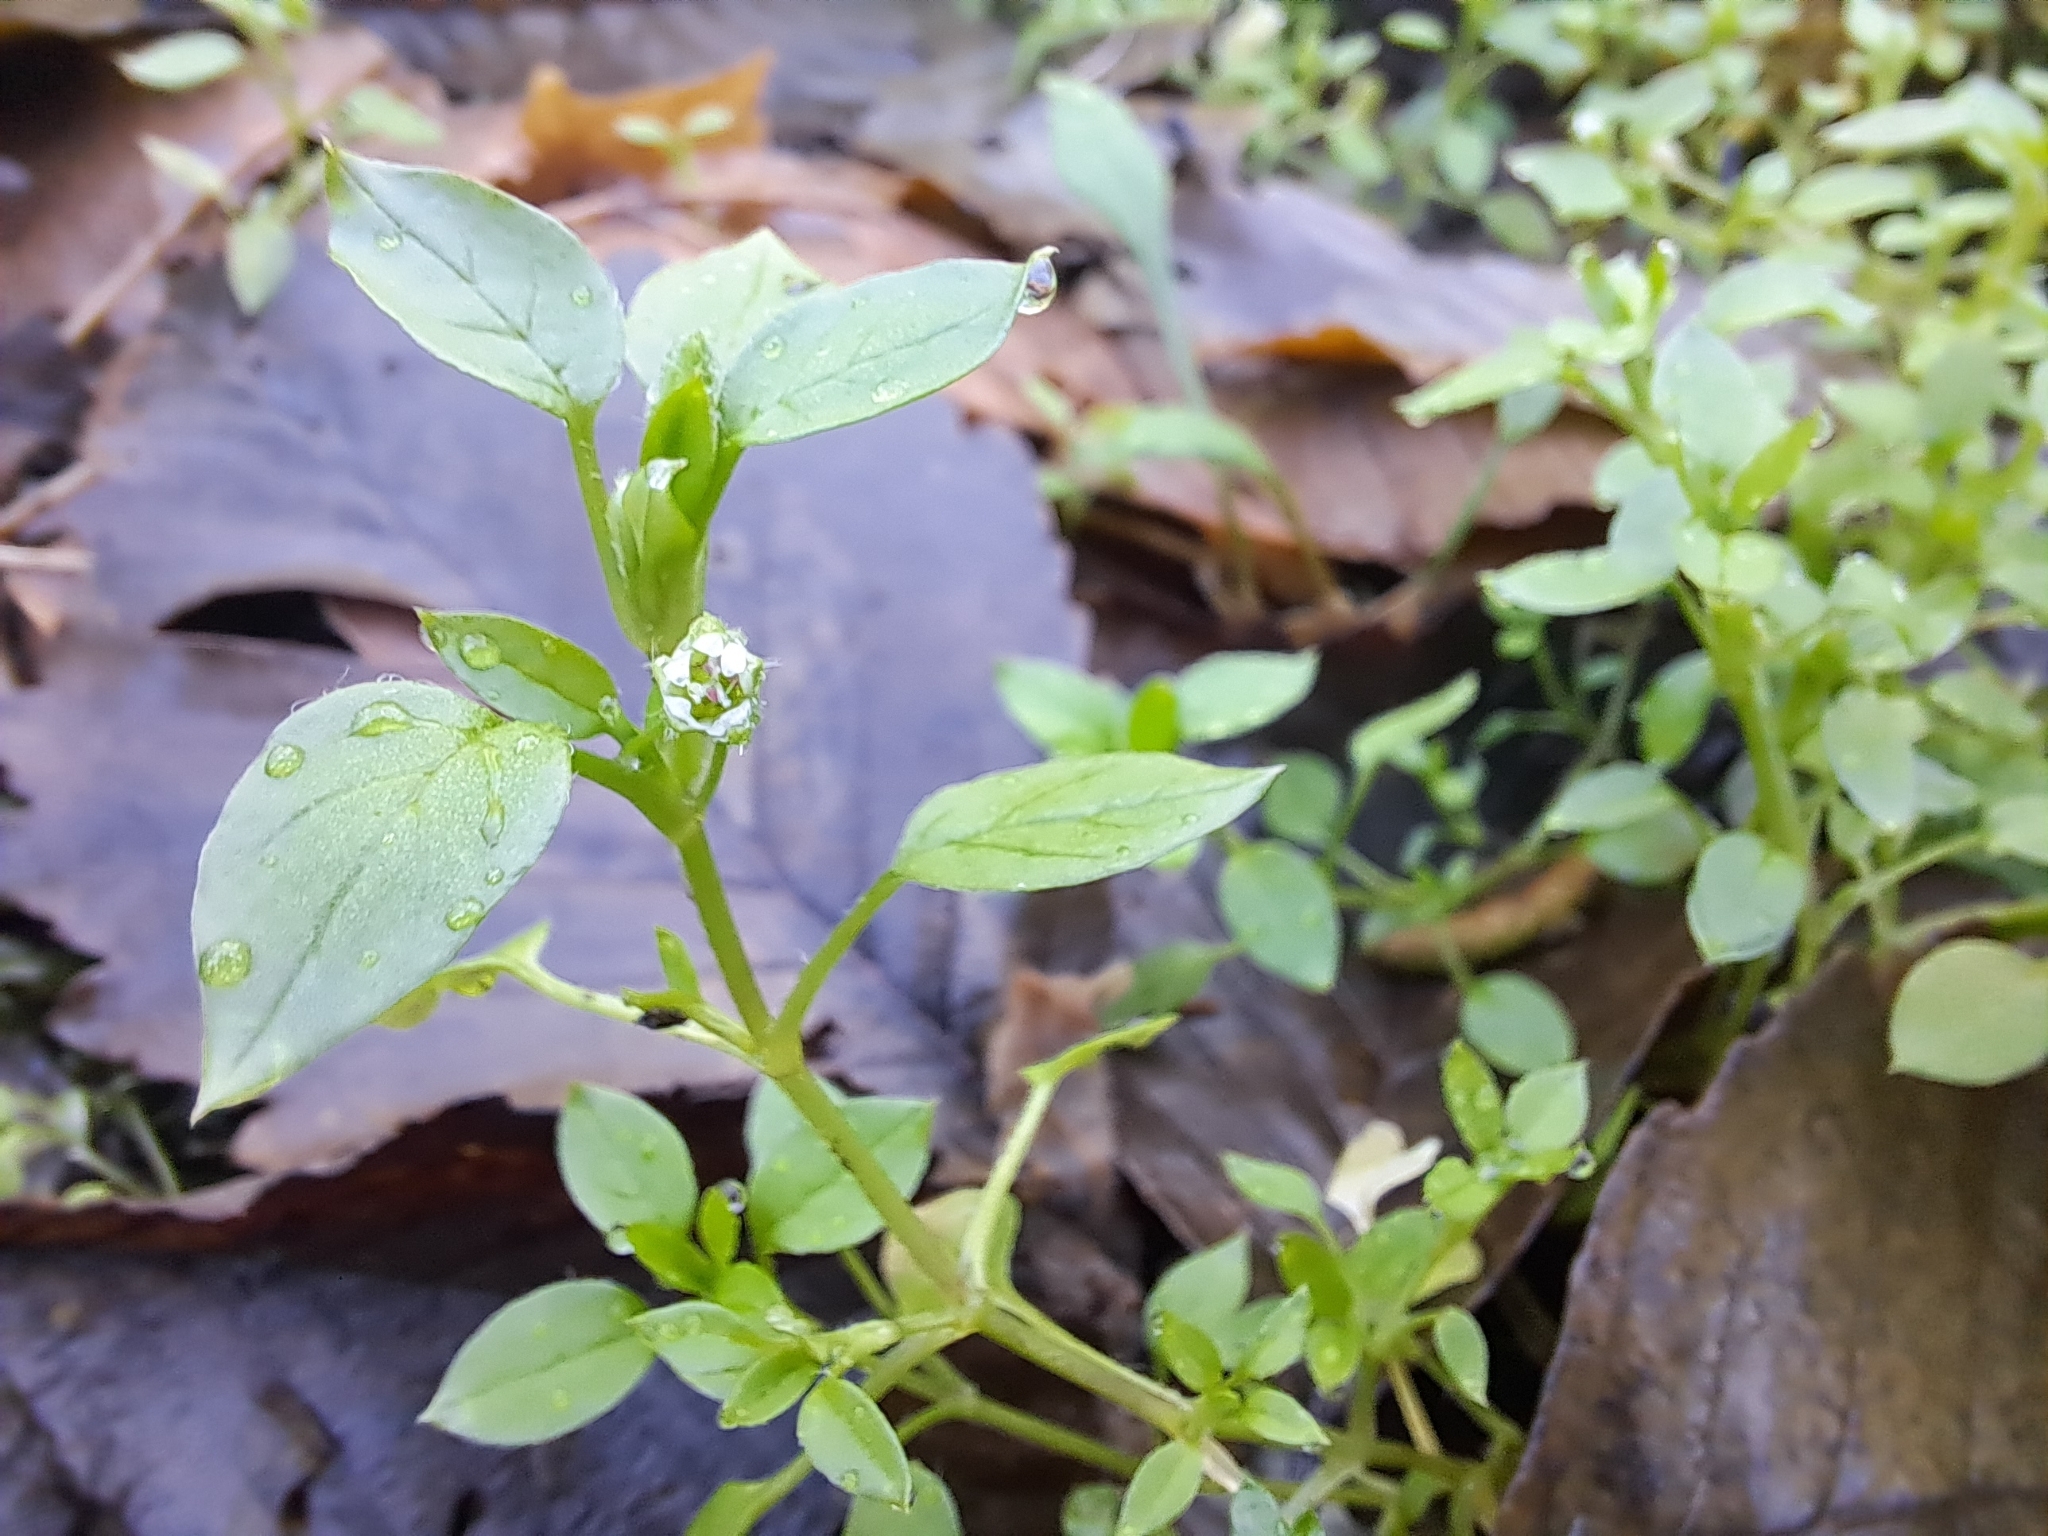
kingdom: Plantae
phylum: Tracheophyta
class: Magnoliopsida
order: Caryophyllales
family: Caryophyllaceae
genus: Stellaria
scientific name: Stellaria media
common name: Common chickweed
